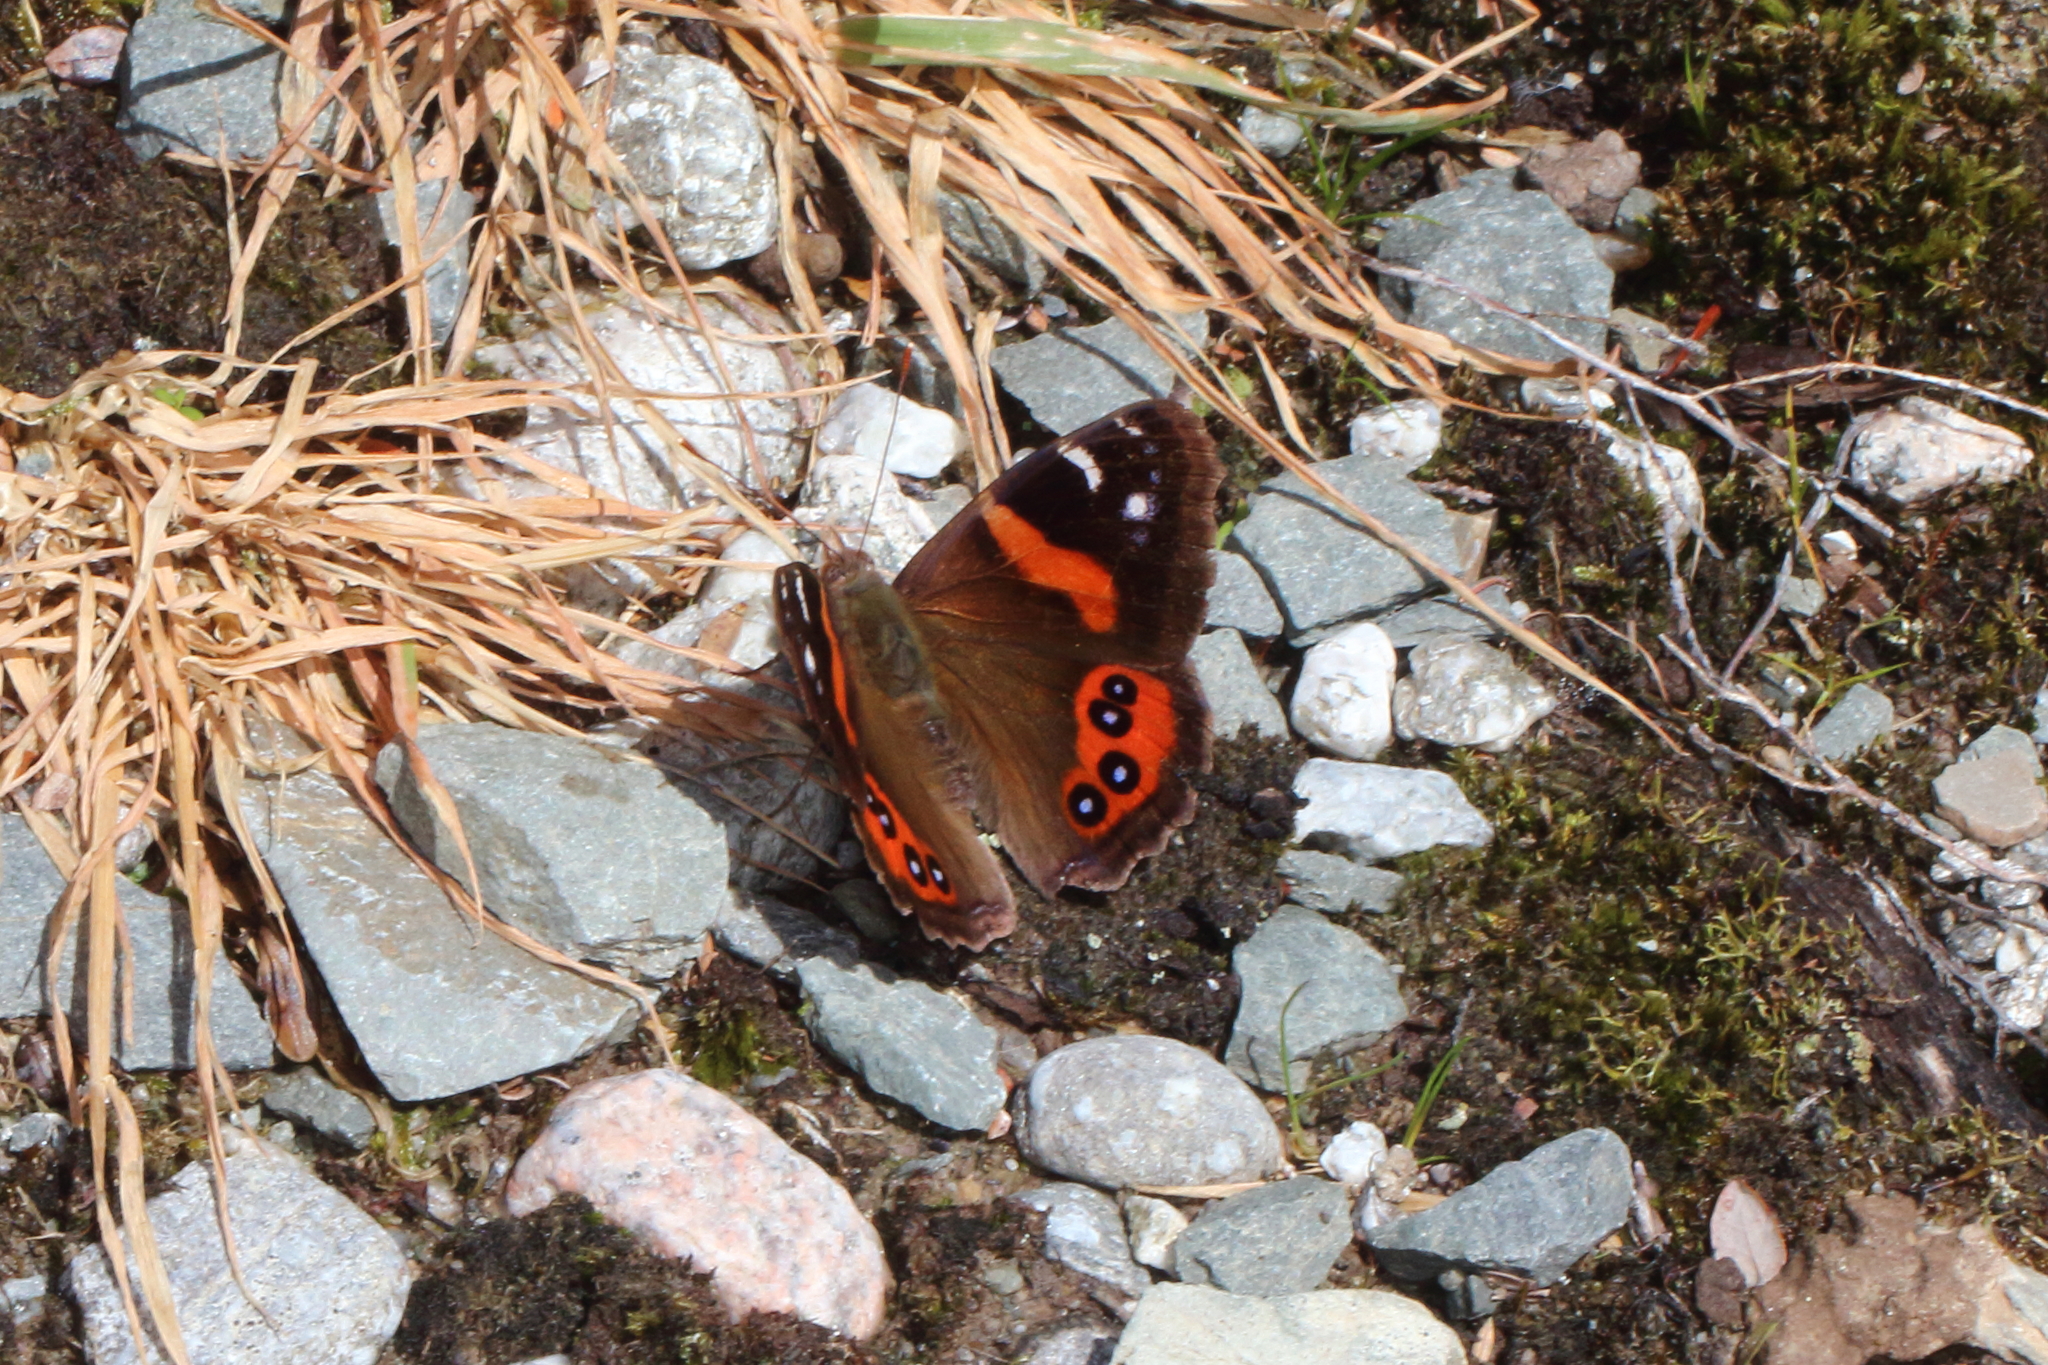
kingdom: Animalia
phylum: Arthropoda
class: Insecta
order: Lepidoptera
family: Nymphalidae
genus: Vanessa
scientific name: Vanessa gonerilla
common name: New zealand red admiral
